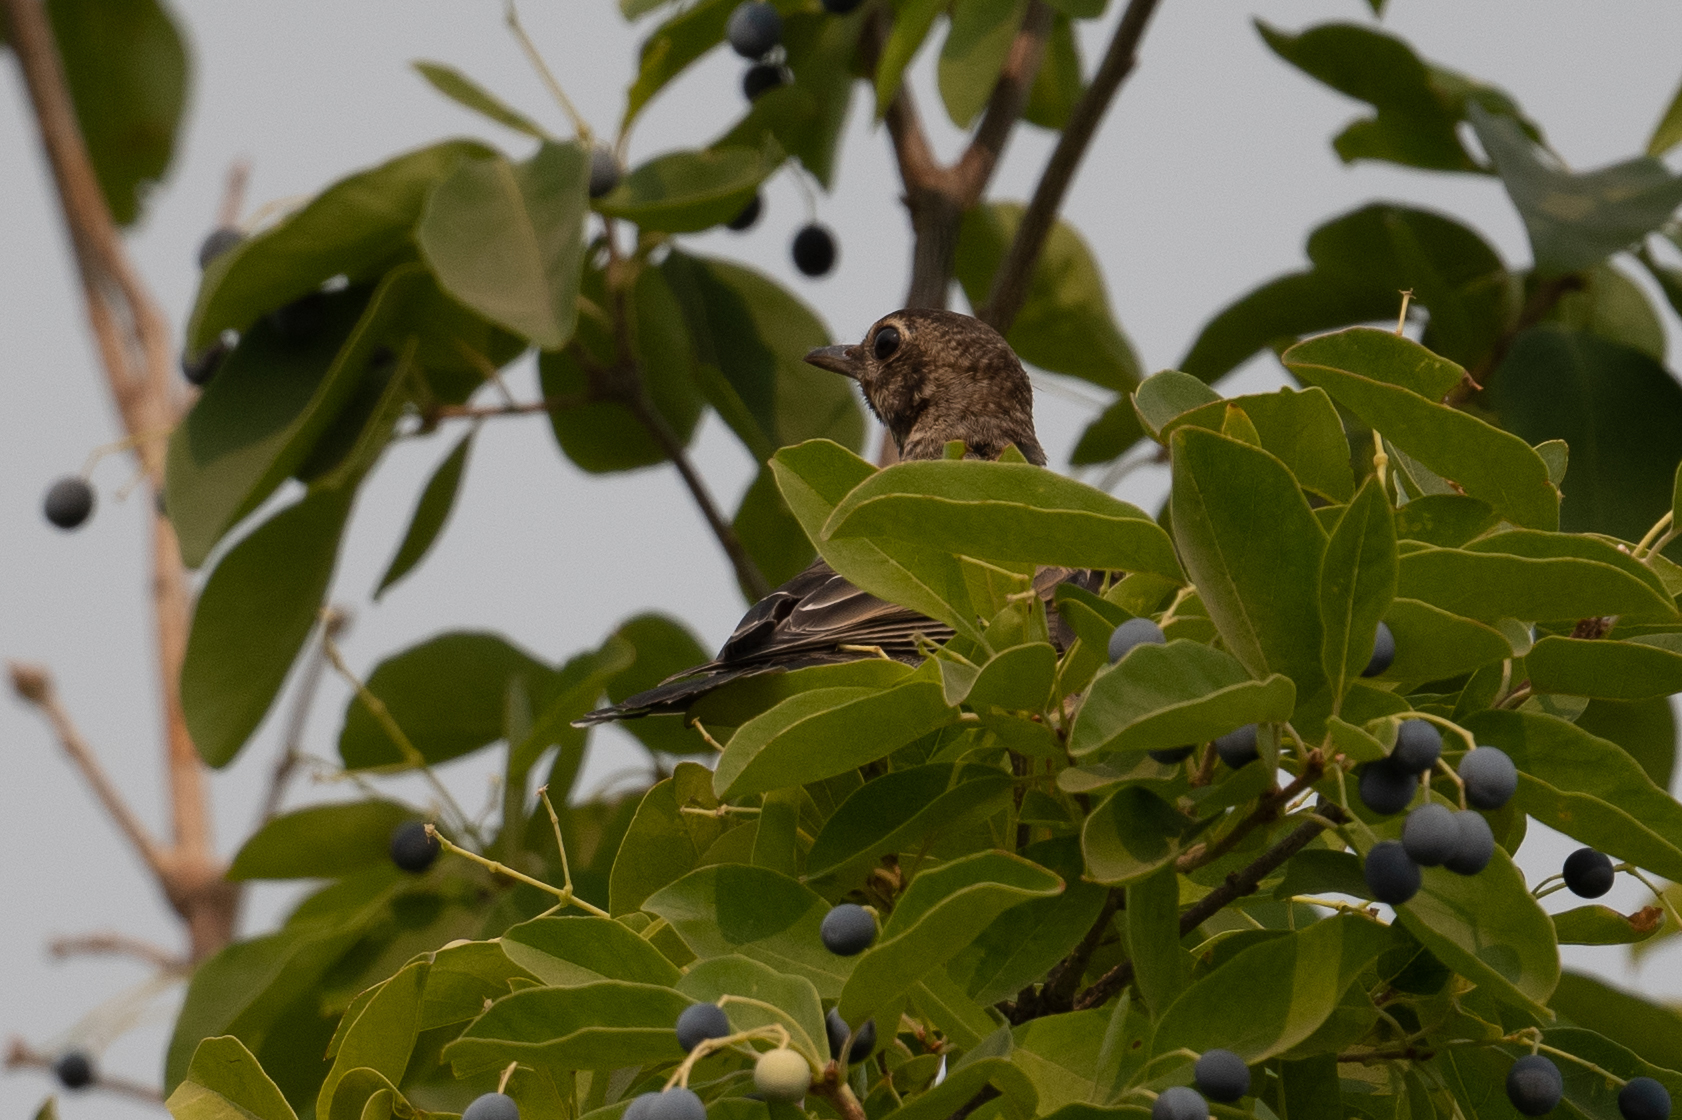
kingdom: Animalia
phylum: Chordata
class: Aves
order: Passeriformes
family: Turdidae
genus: Turdus
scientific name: Turdus migratorius
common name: American robin
